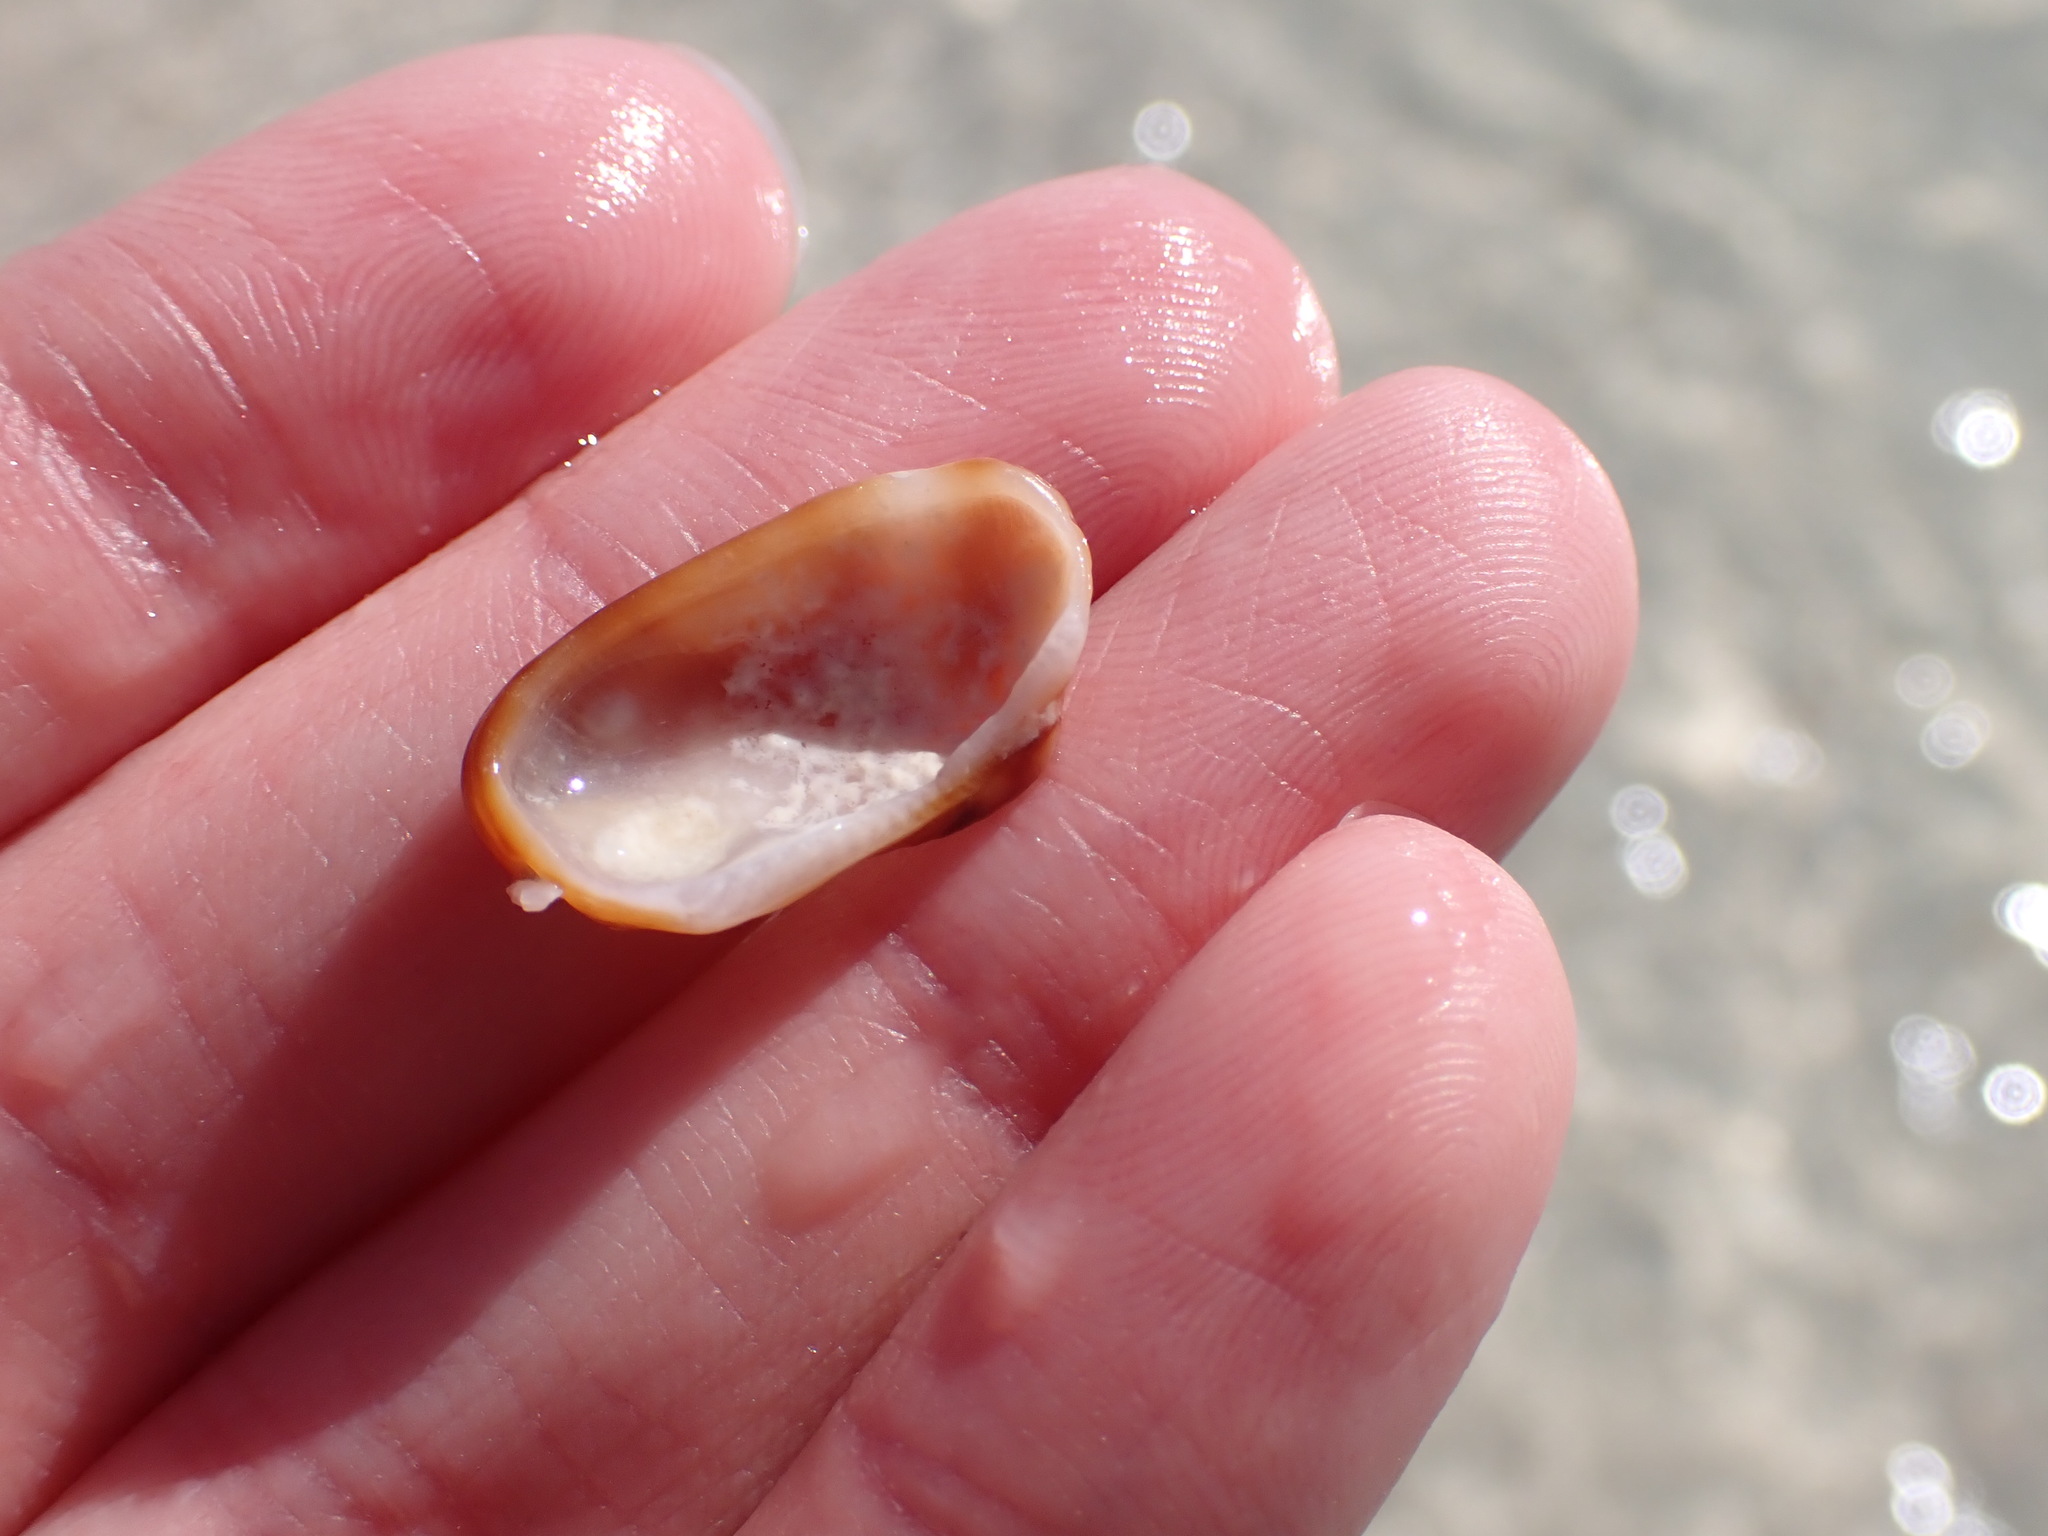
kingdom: Animalia
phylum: Mollusca
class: Bivalvia
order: Arcida
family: Arcidae
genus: Barbatia
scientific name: Barbatia domingensis
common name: White miniature ark
